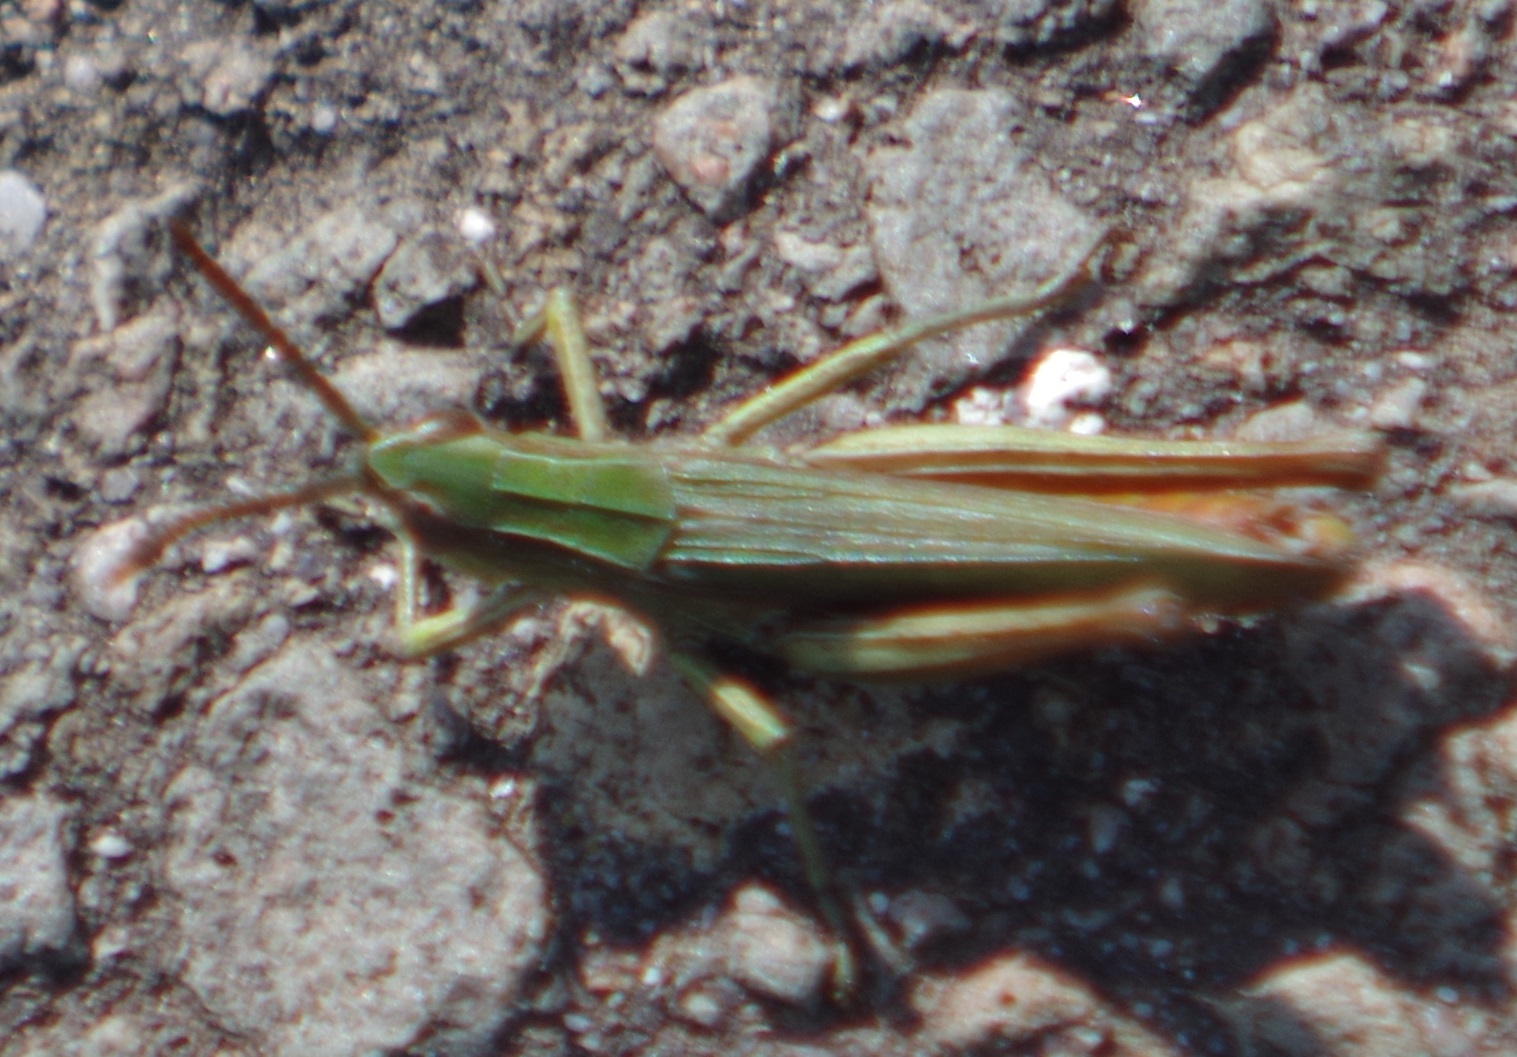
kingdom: Animalia
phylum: Arthropoda
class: Insecta
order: Orthoptera
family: Acrididae
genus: Chorthippus
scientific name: Chorthippus dorsatus
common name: Steppe grasshopper
